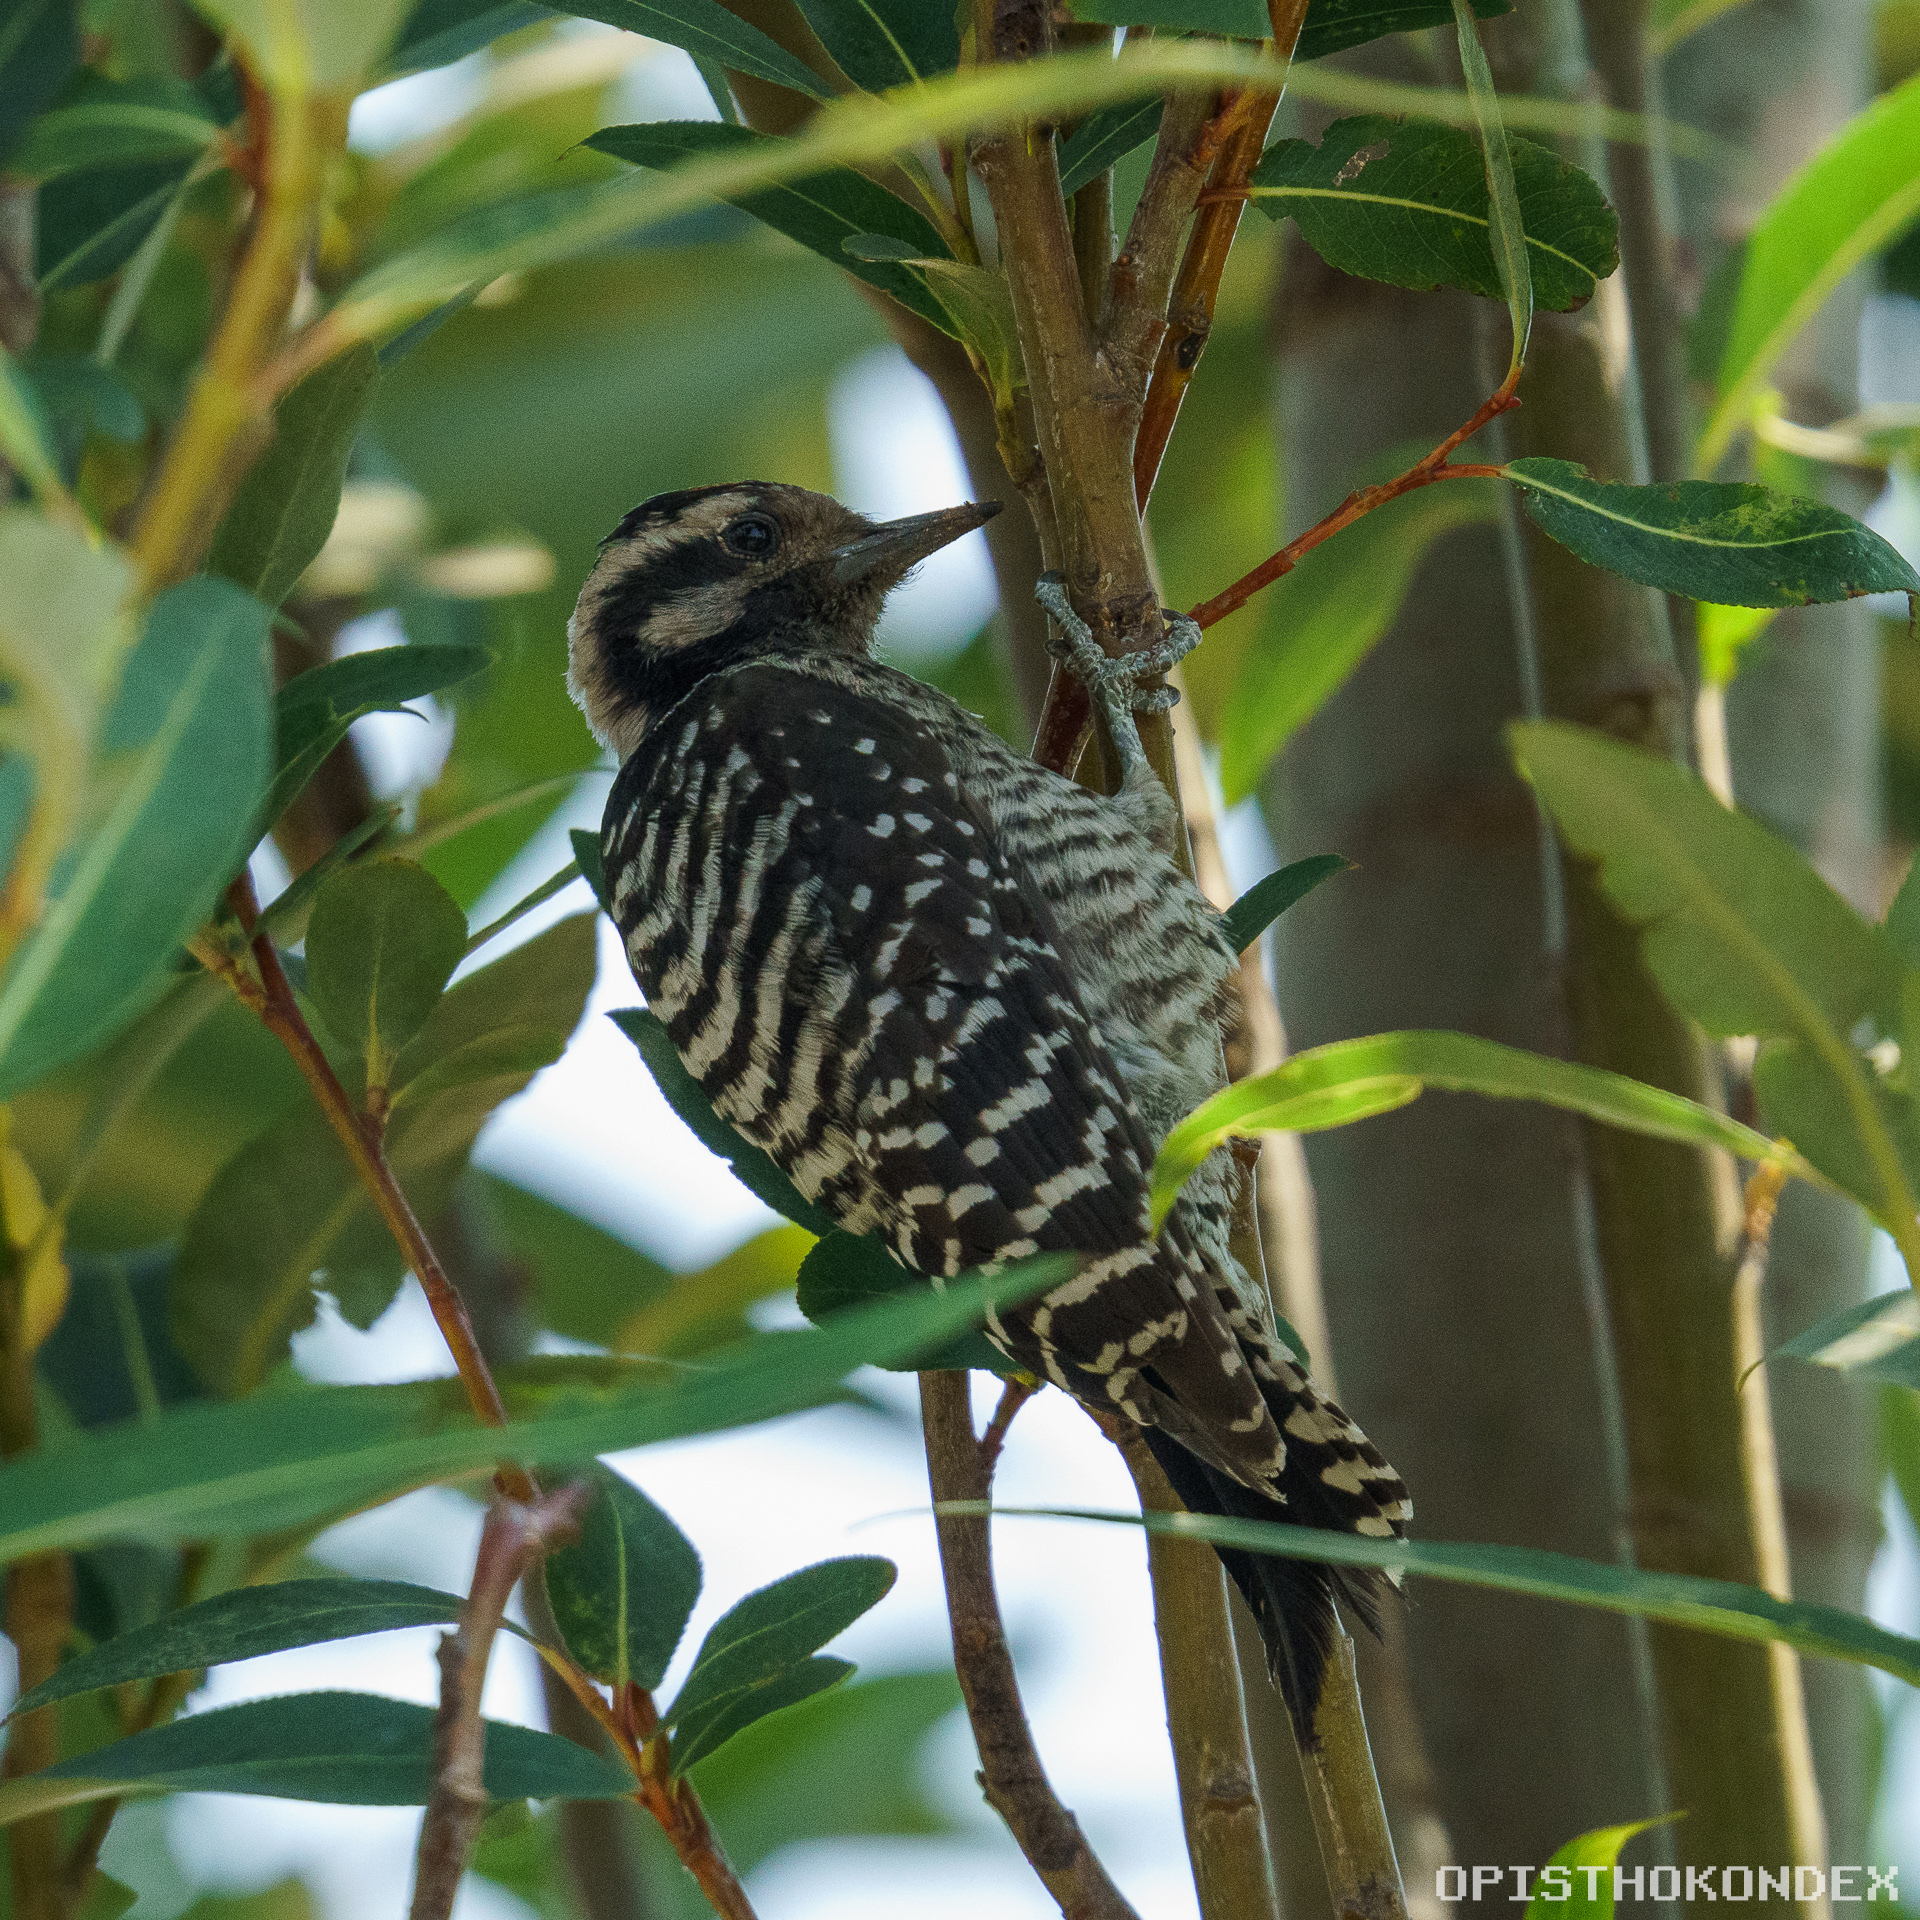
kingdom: Animalia
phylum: Chordata
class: Aves
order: Piciformes
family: Picidae
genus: Dryobates
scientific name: Dryobates scalaris
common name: Ladder-backed woodpecker
